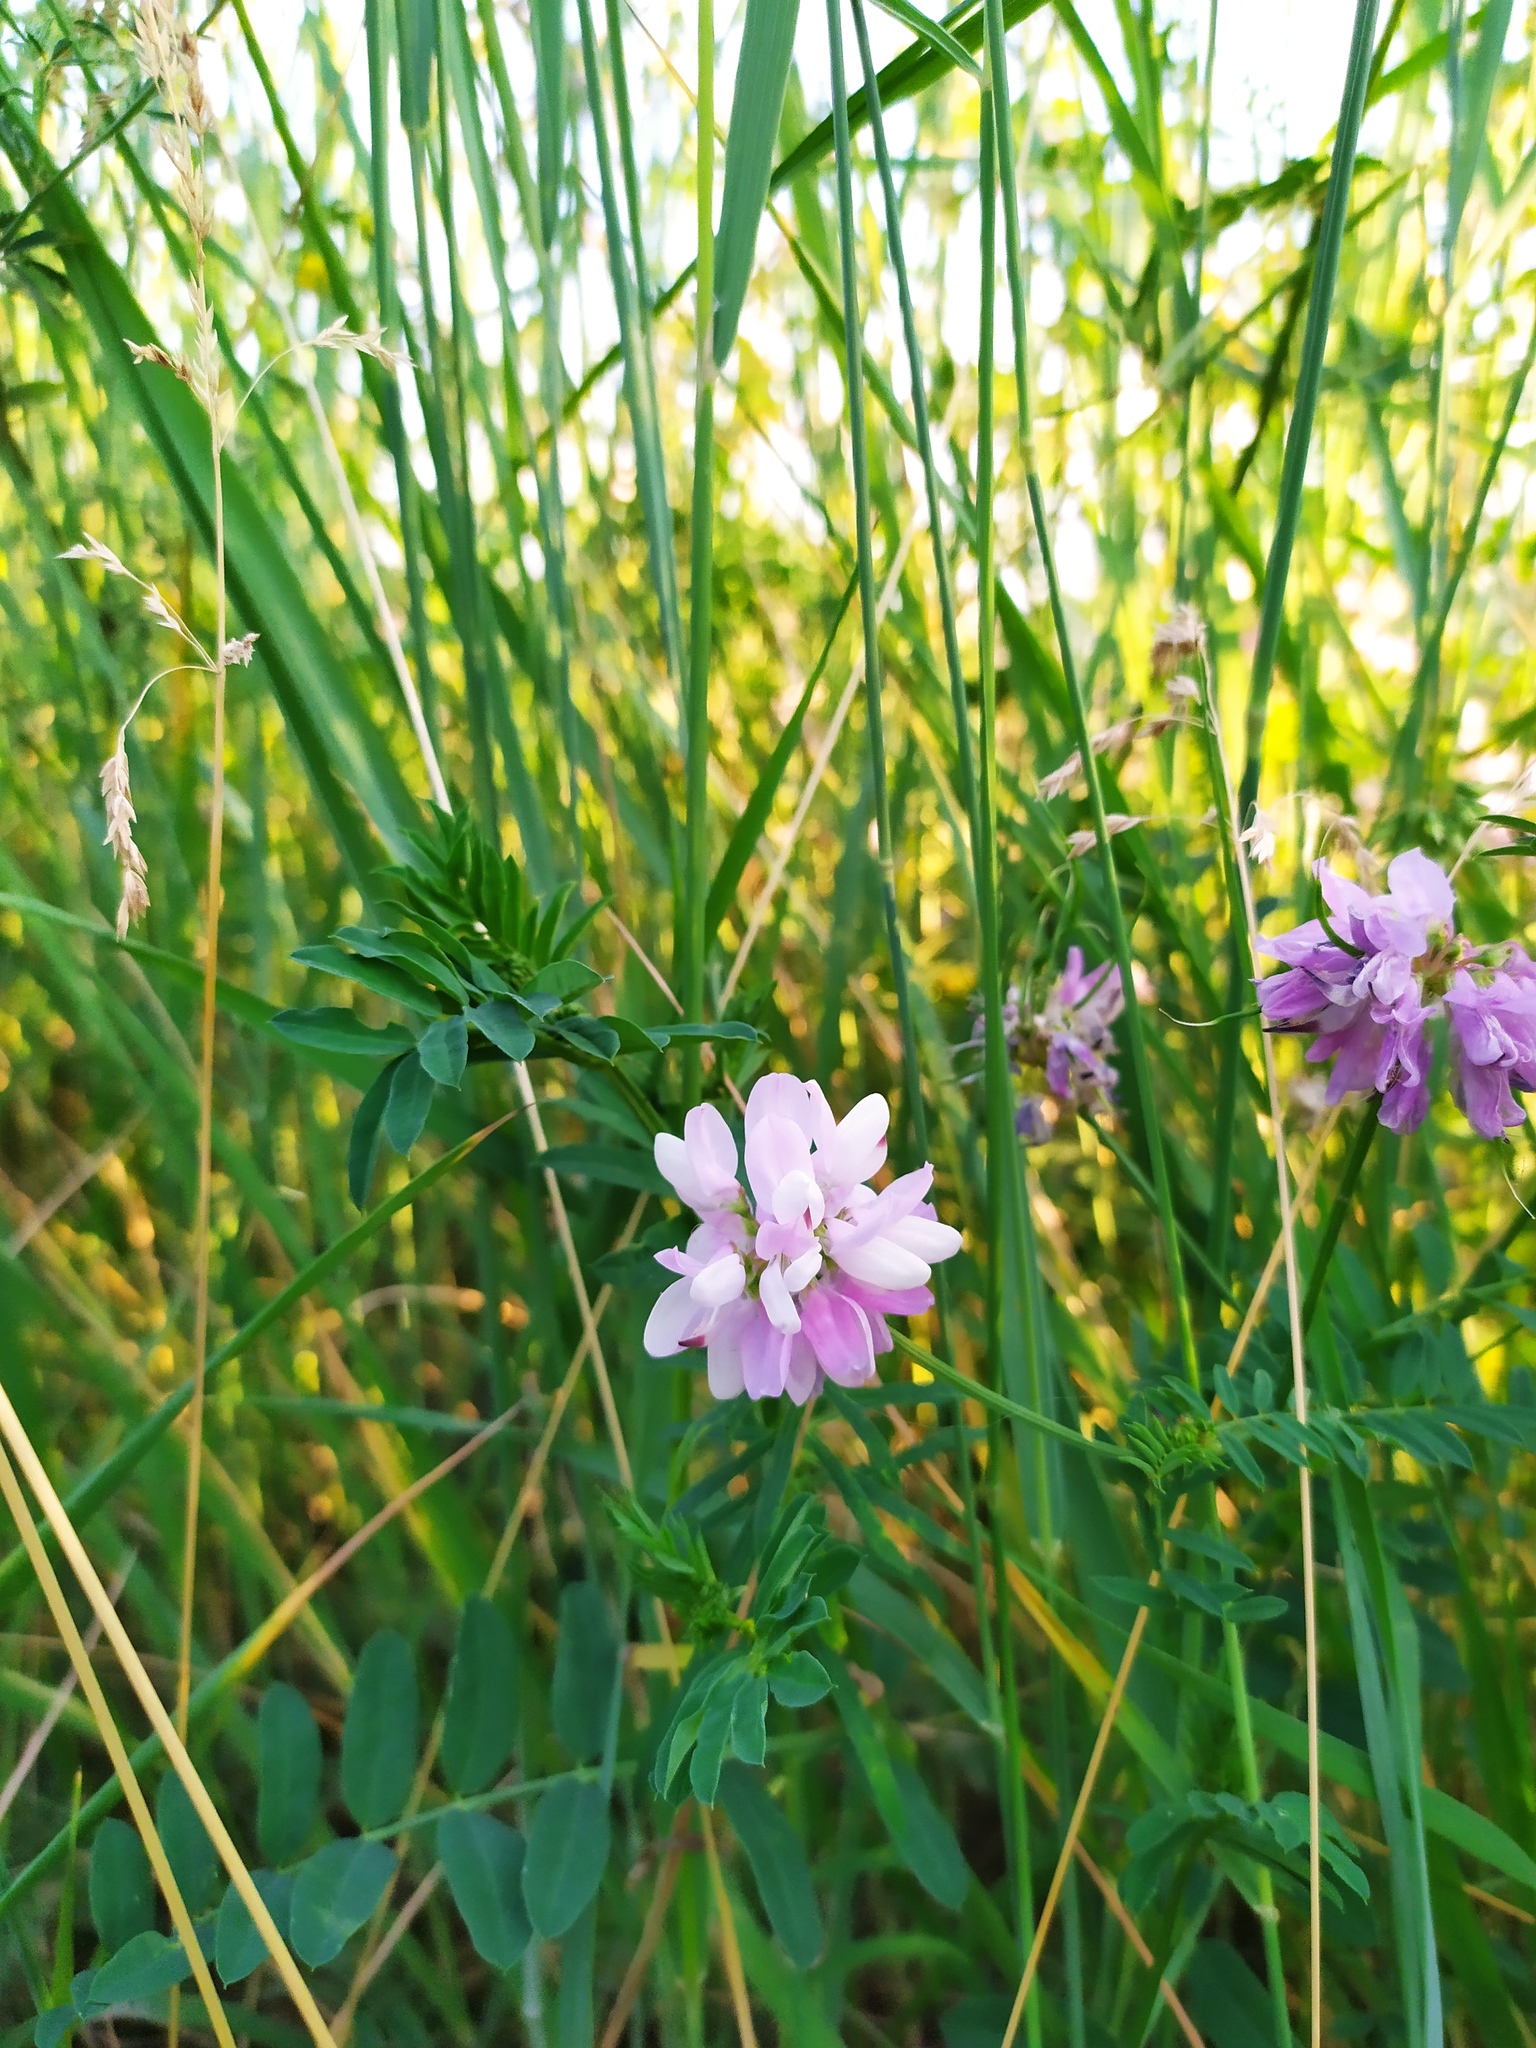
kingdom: Plantae
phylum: Tracheophyta
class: Magnoliopsida
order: Fabales
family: Fabaceae
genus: Coronilla
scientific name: Coronilla varia
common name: Crownvetch
